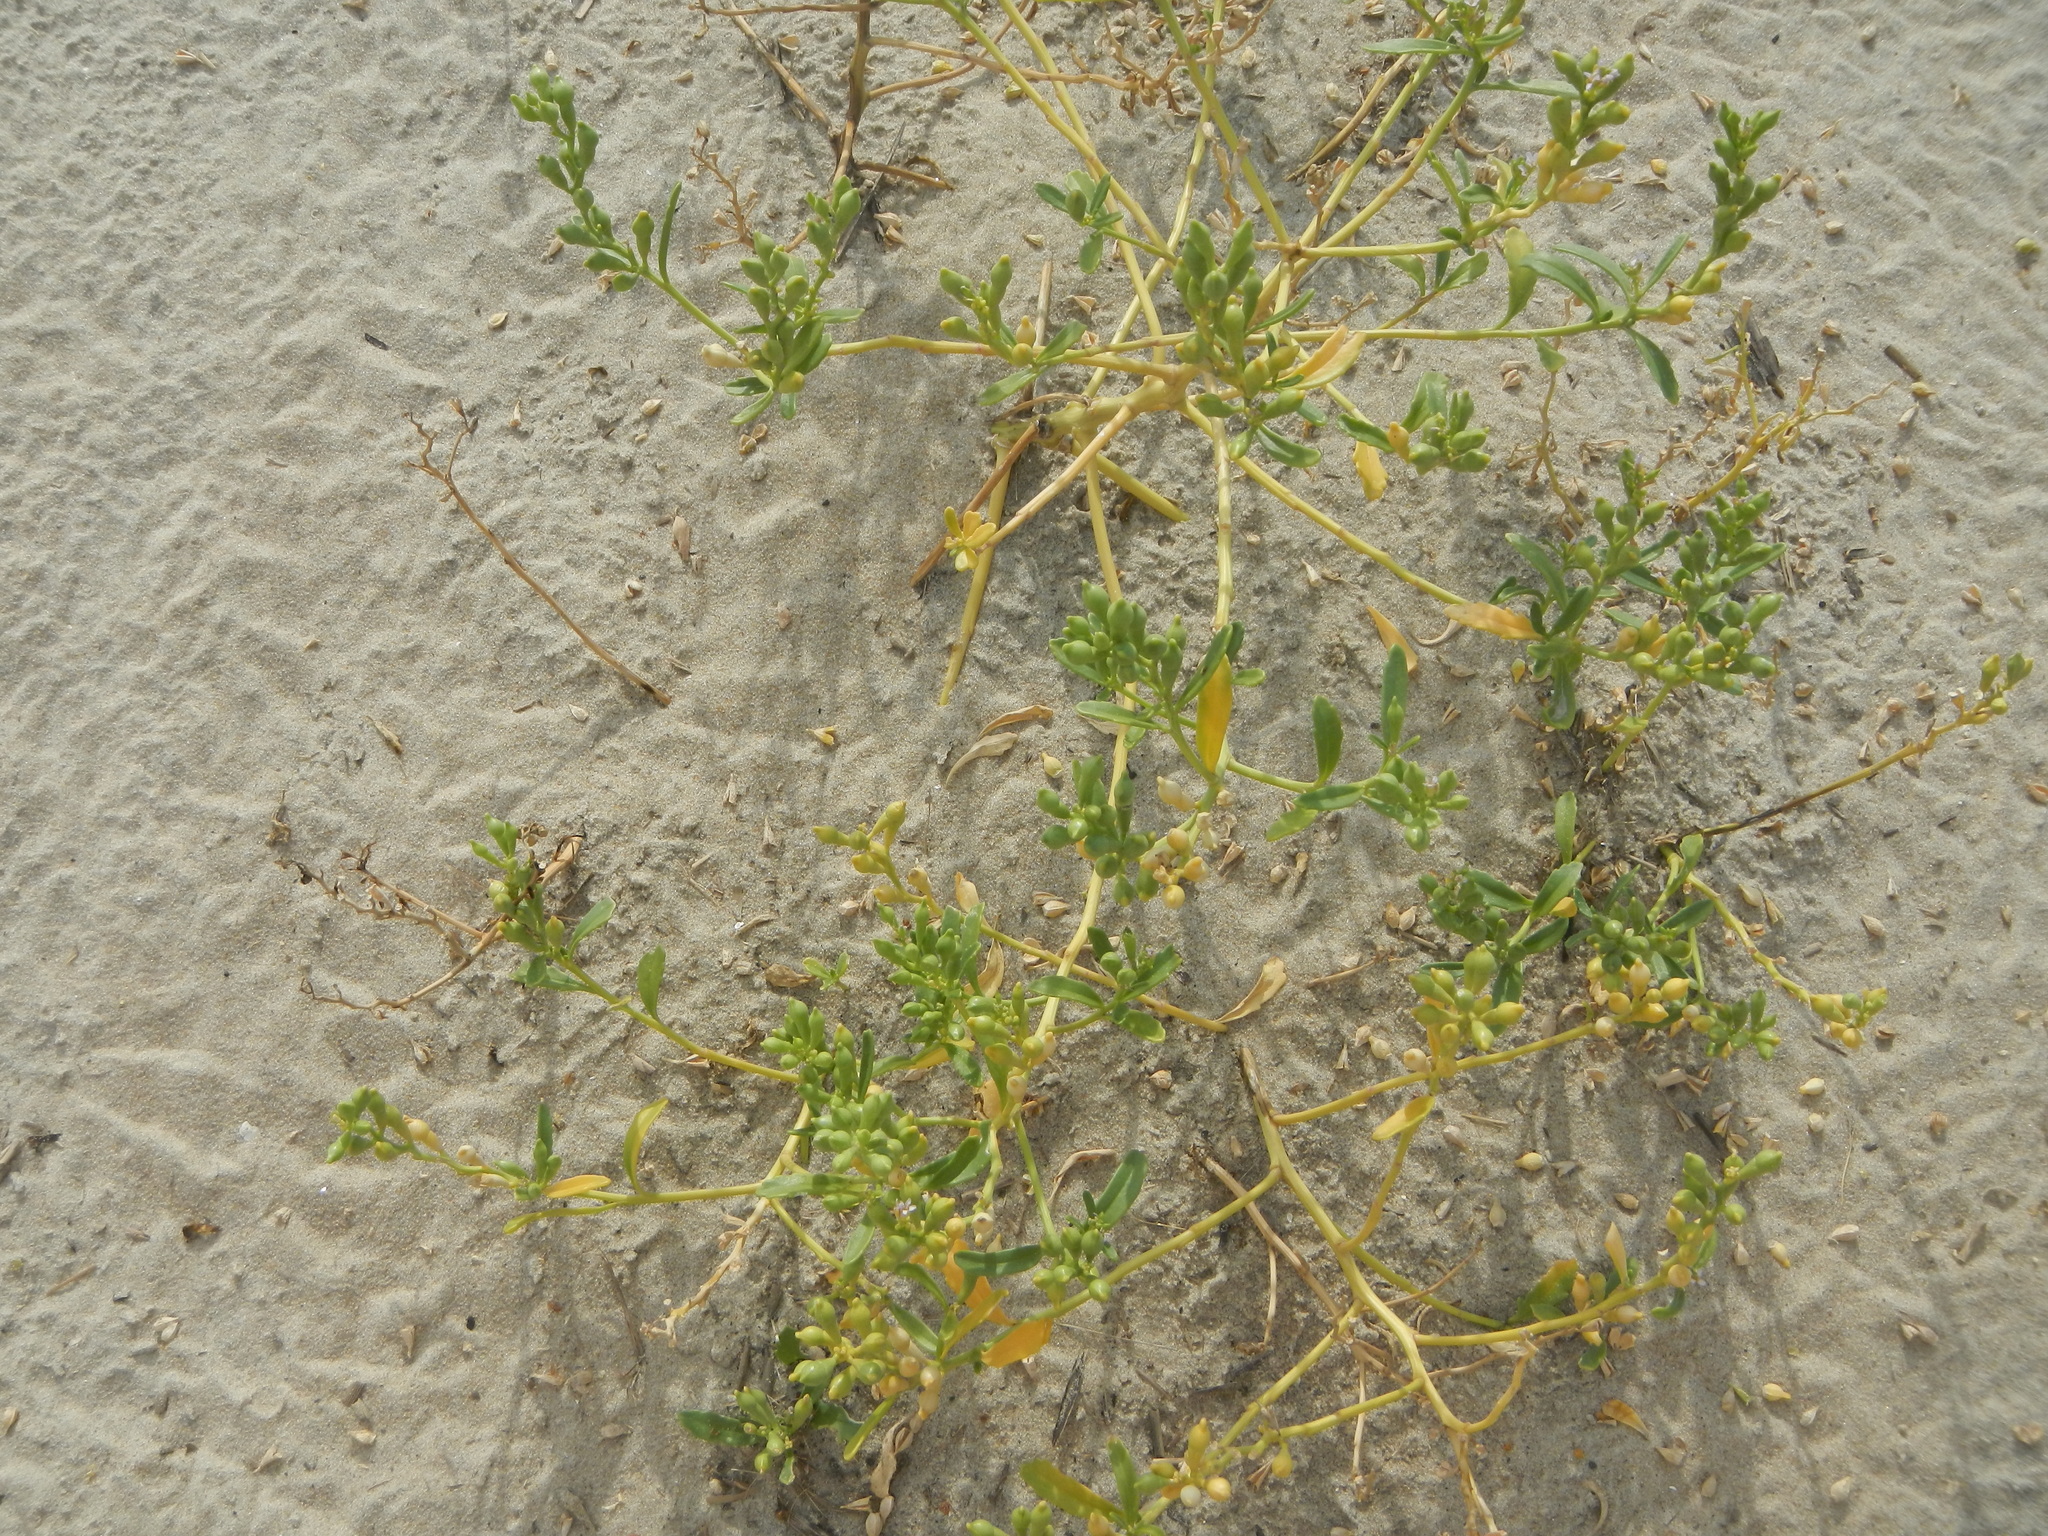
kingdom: Plantae
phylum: Tracheophyta
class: Magnoliopsida
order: Brassicales
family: Brassicaceae
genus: Cakile
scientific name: Cakile edentula
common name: American sea rocket
